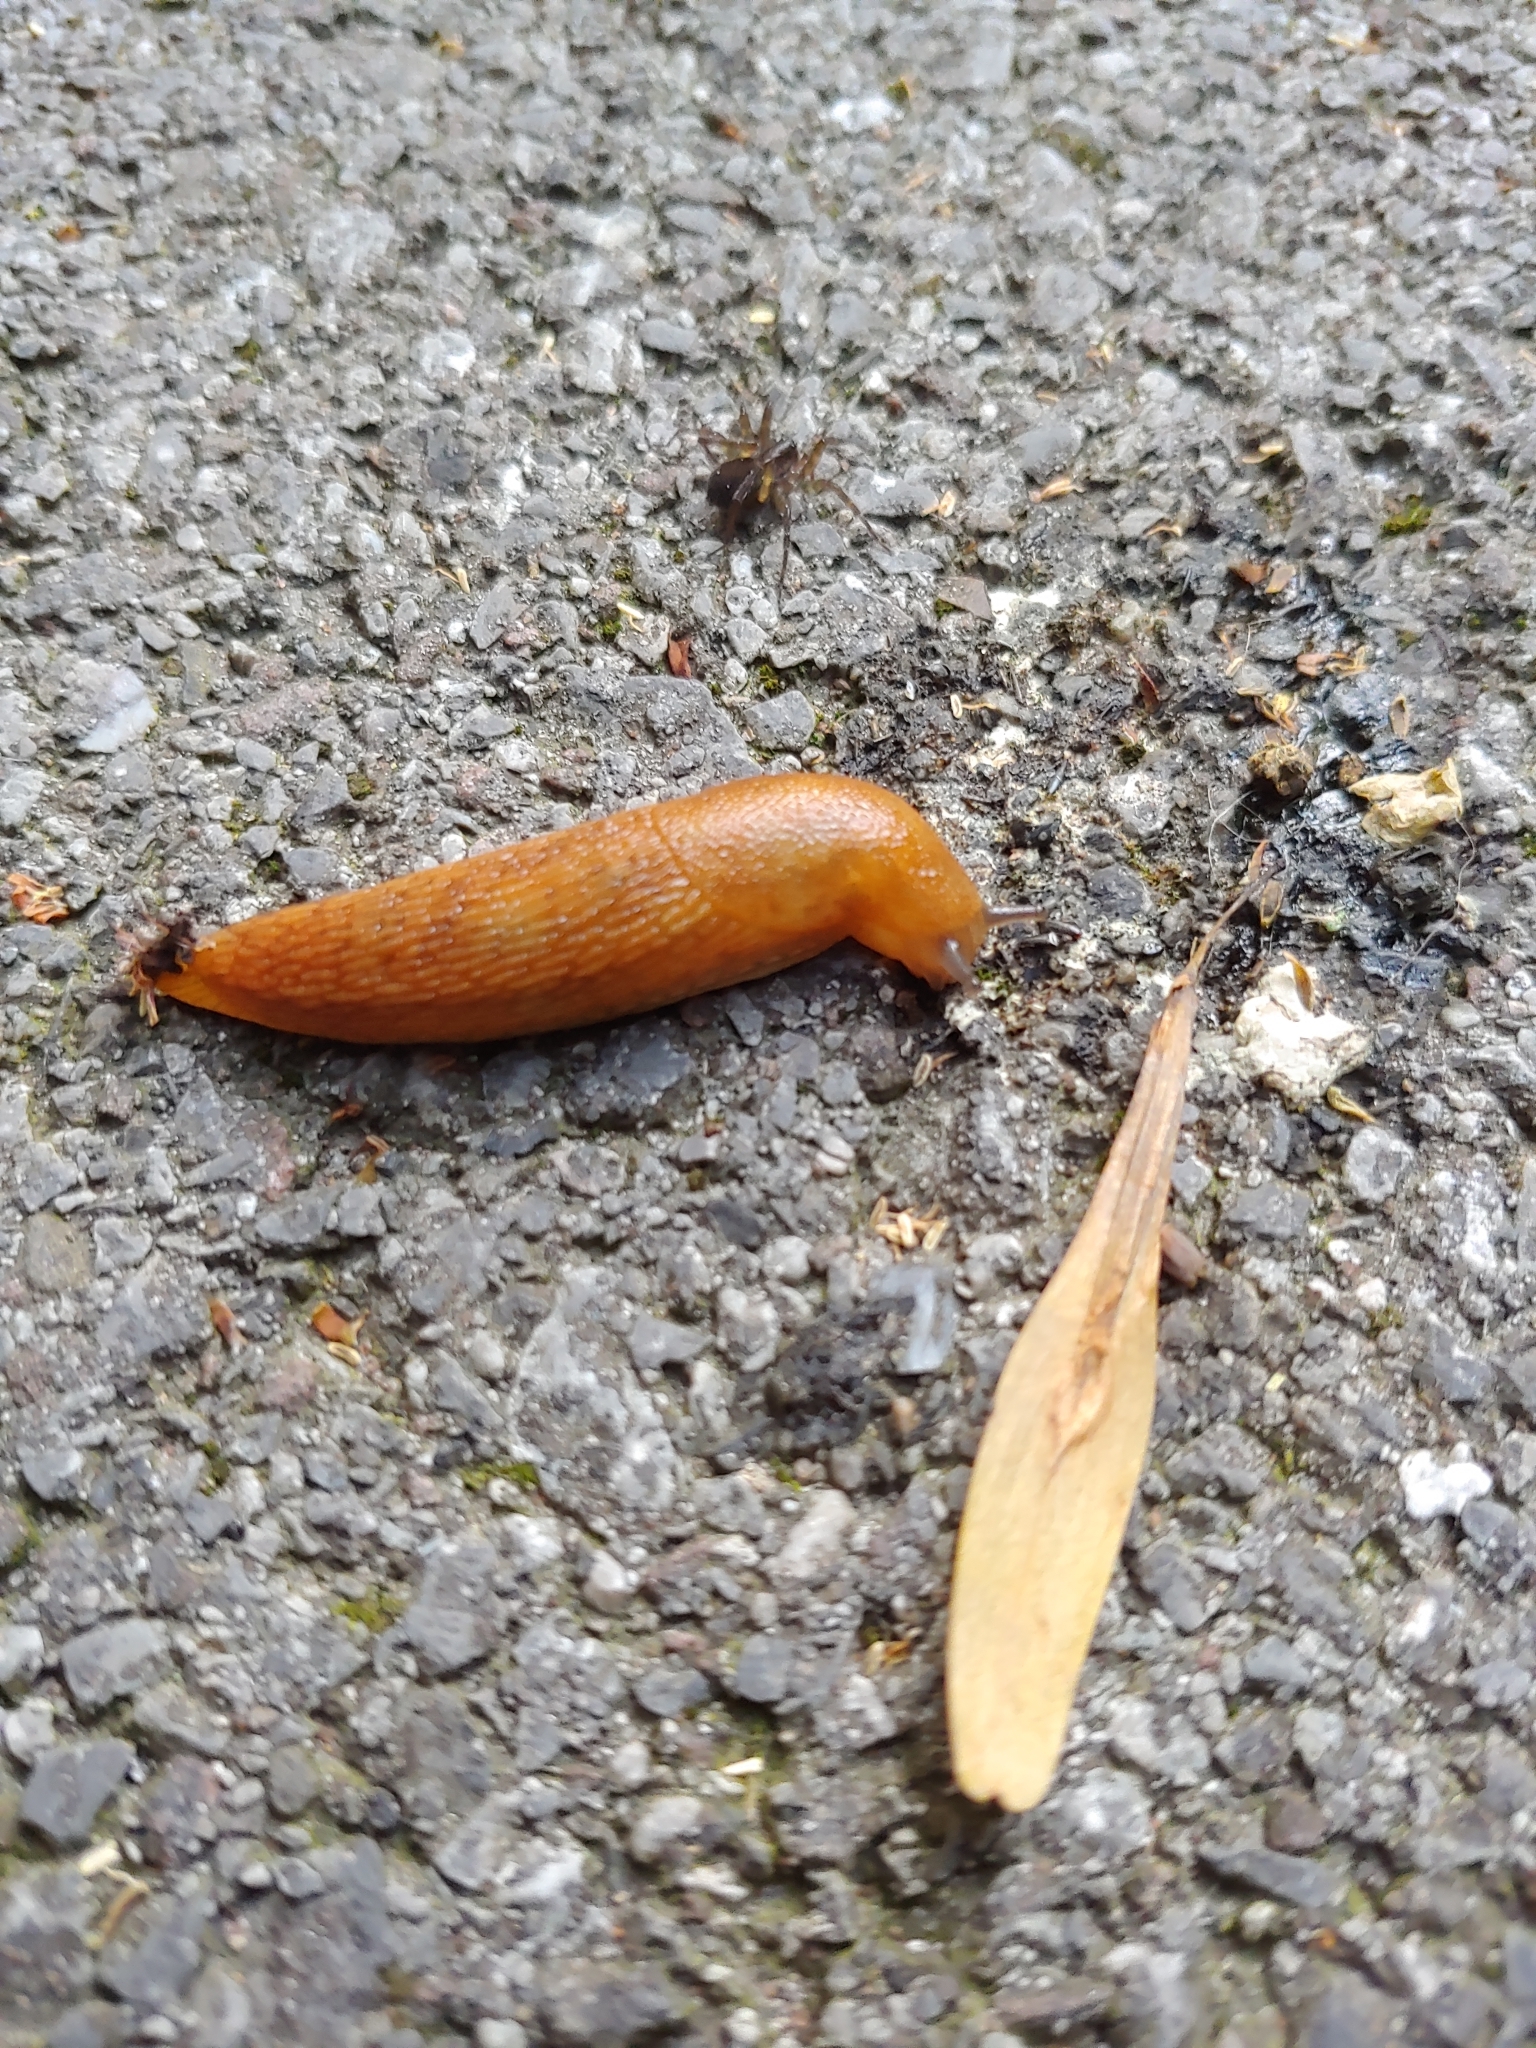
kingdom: Animalia
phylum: Mollusca
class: Gastropoda
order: Stylommatophora
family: Arionidae
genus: Arion
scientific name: Arion subfuscus
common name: Dusky arion
